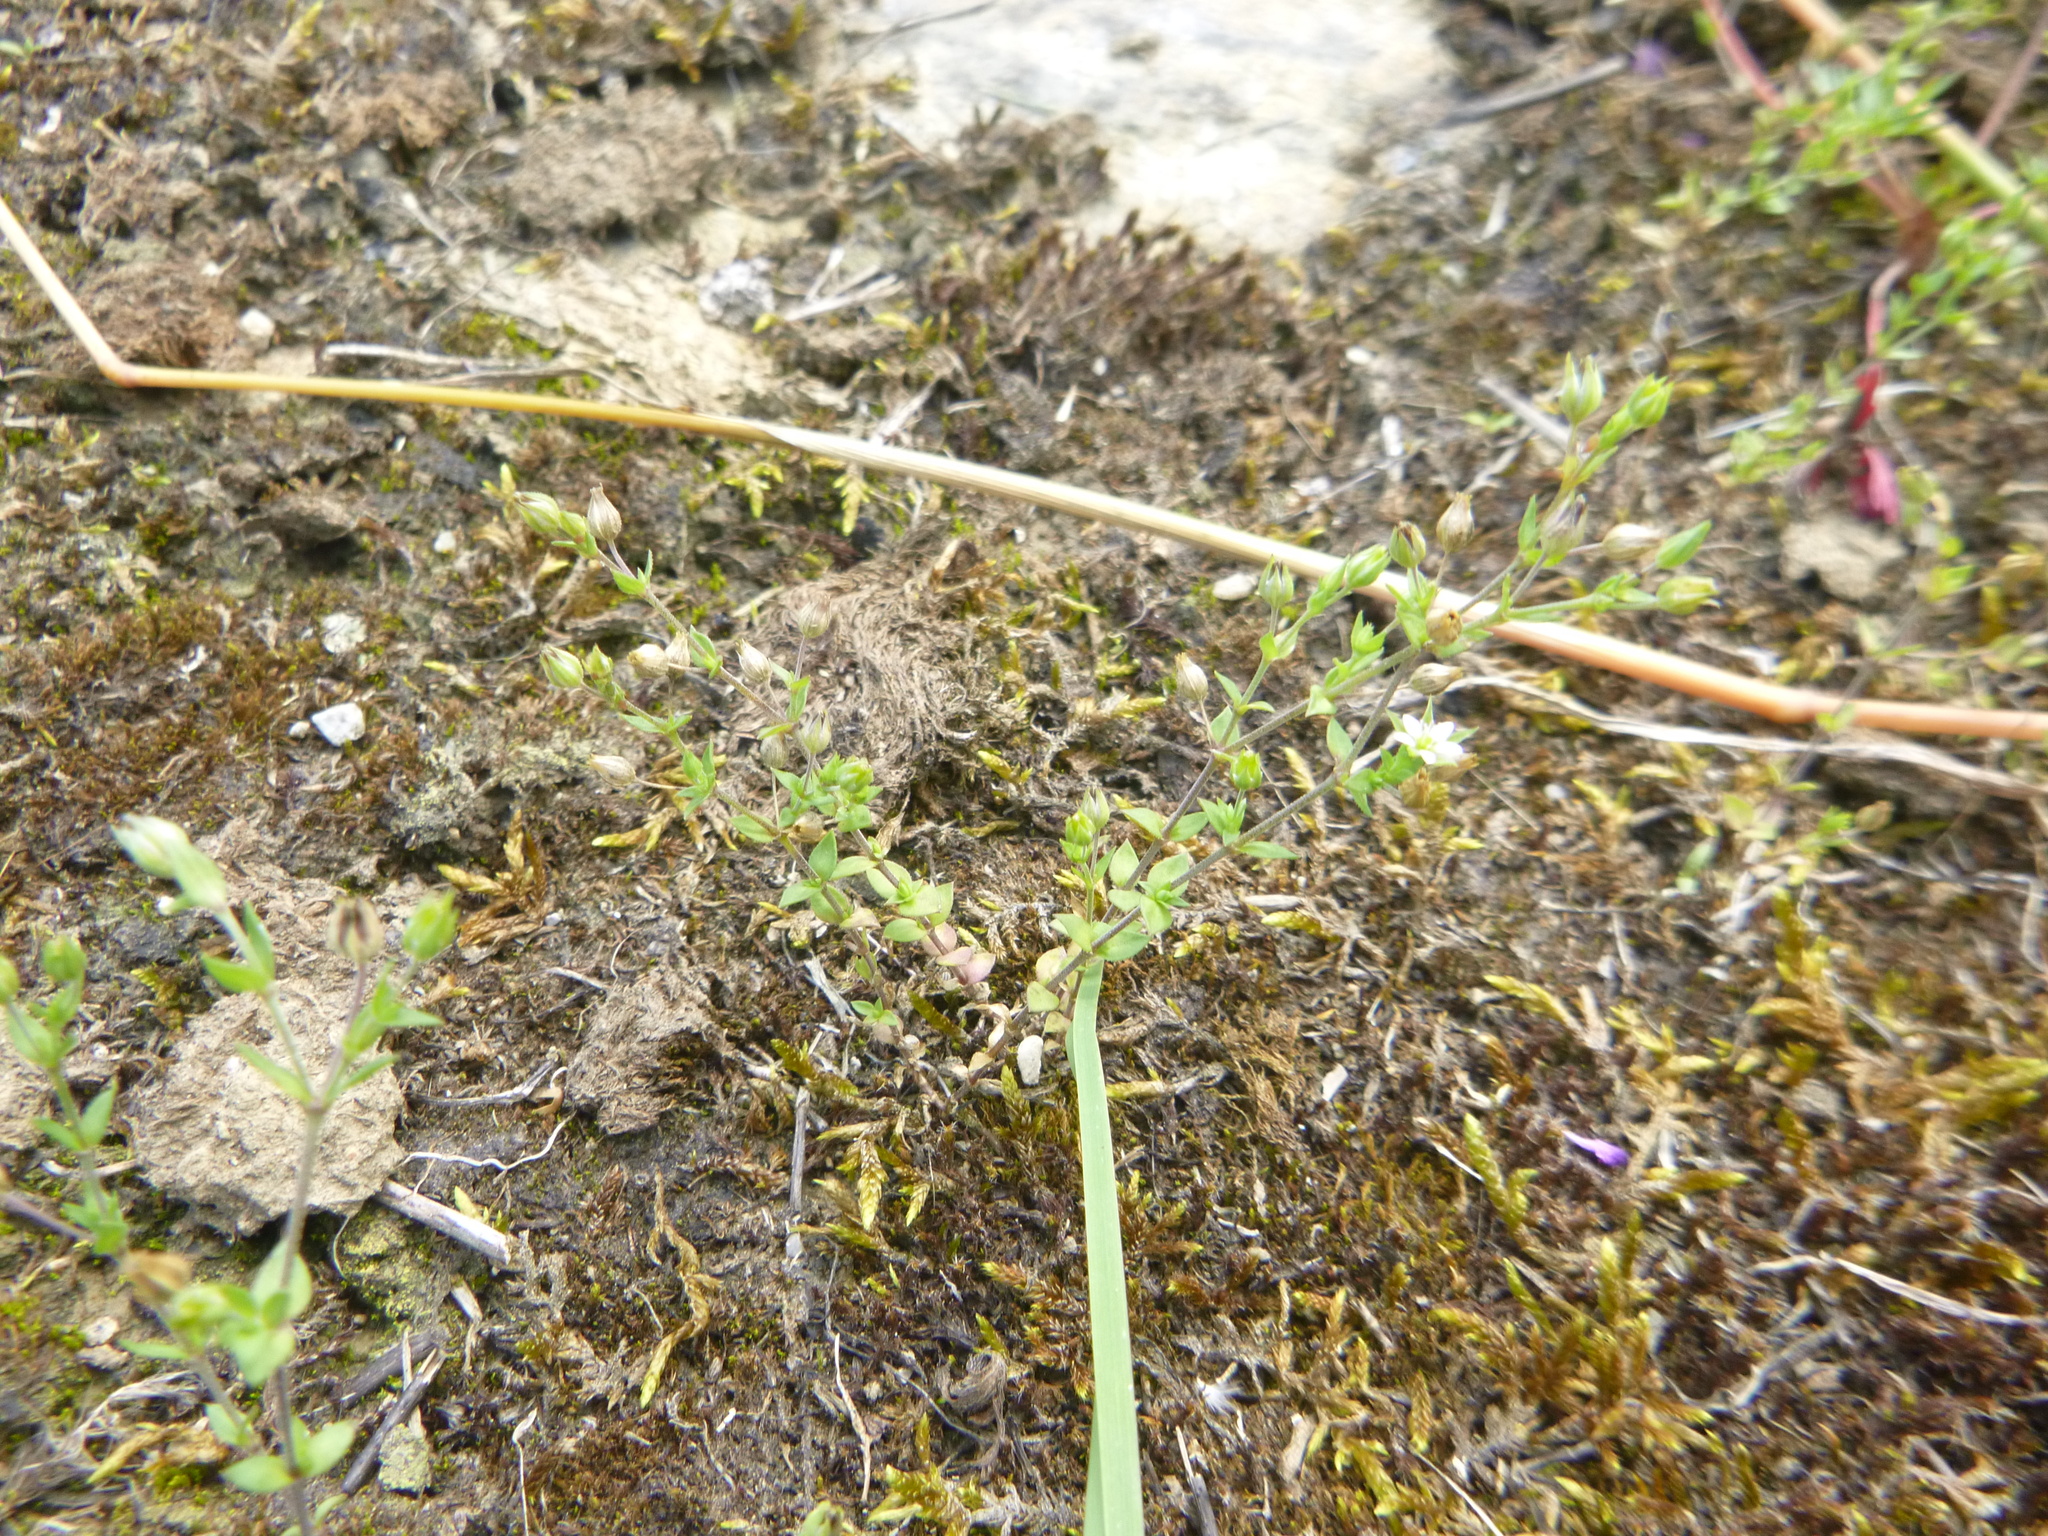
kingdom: Plantae
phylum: Tracheophyta
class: Magnoliopsida
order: Caryophyllales
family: Caryophyllaceae
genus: Arenaria
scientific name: Arenaria serpyllifolia
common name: Thyme-leaved sandwort
